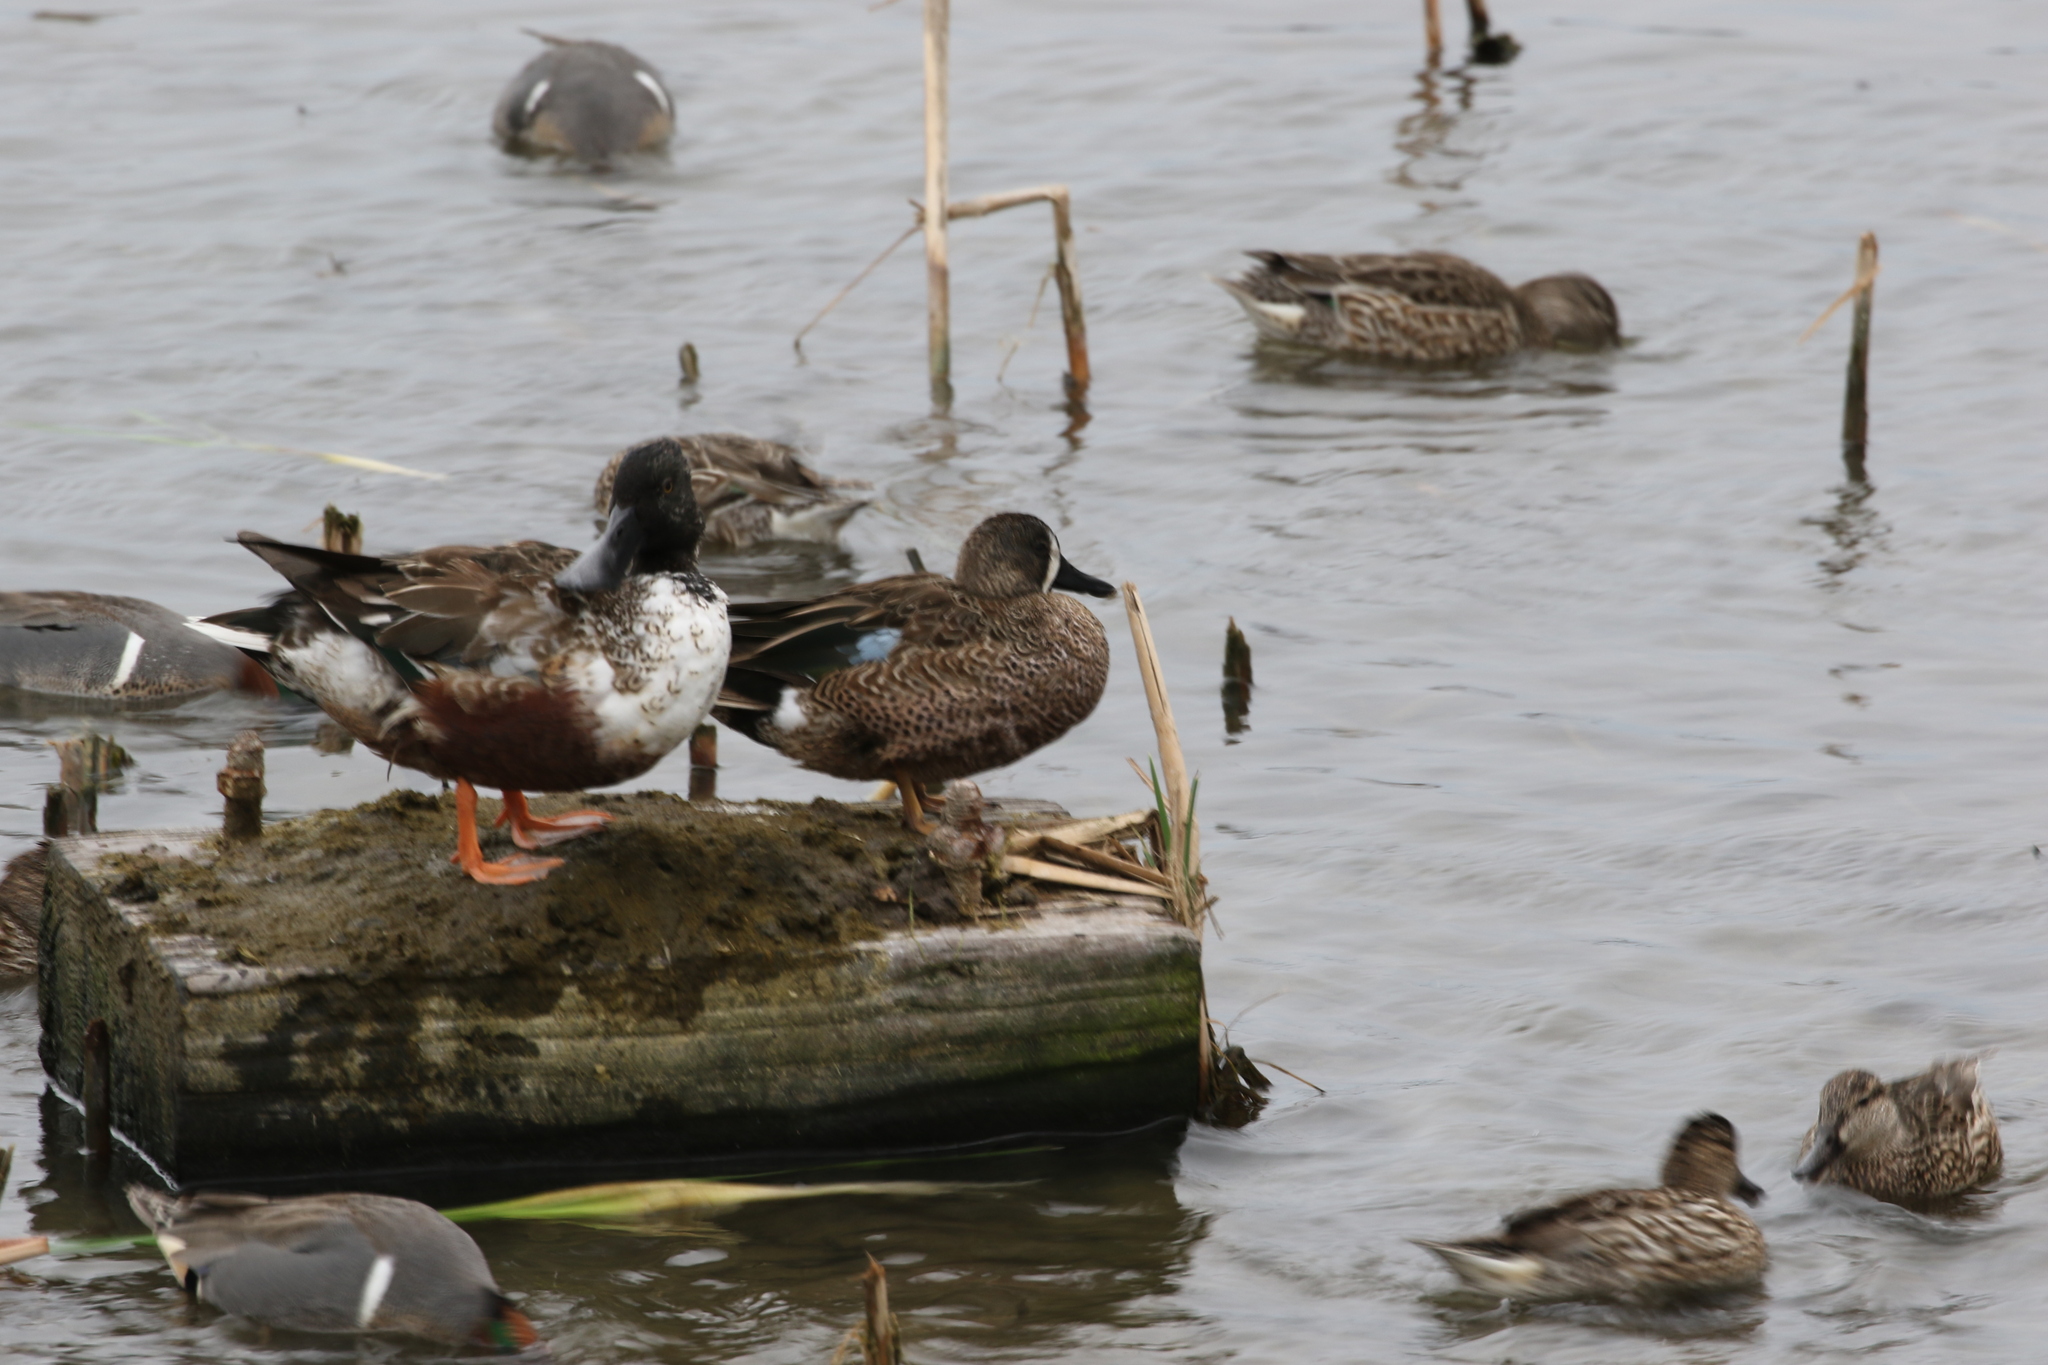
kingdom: Animalia
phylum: Chordata
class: Aves
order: Anseriformes
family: Anatidae
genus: Spatula
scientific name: Spatula discors
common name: Blue-winged teal
